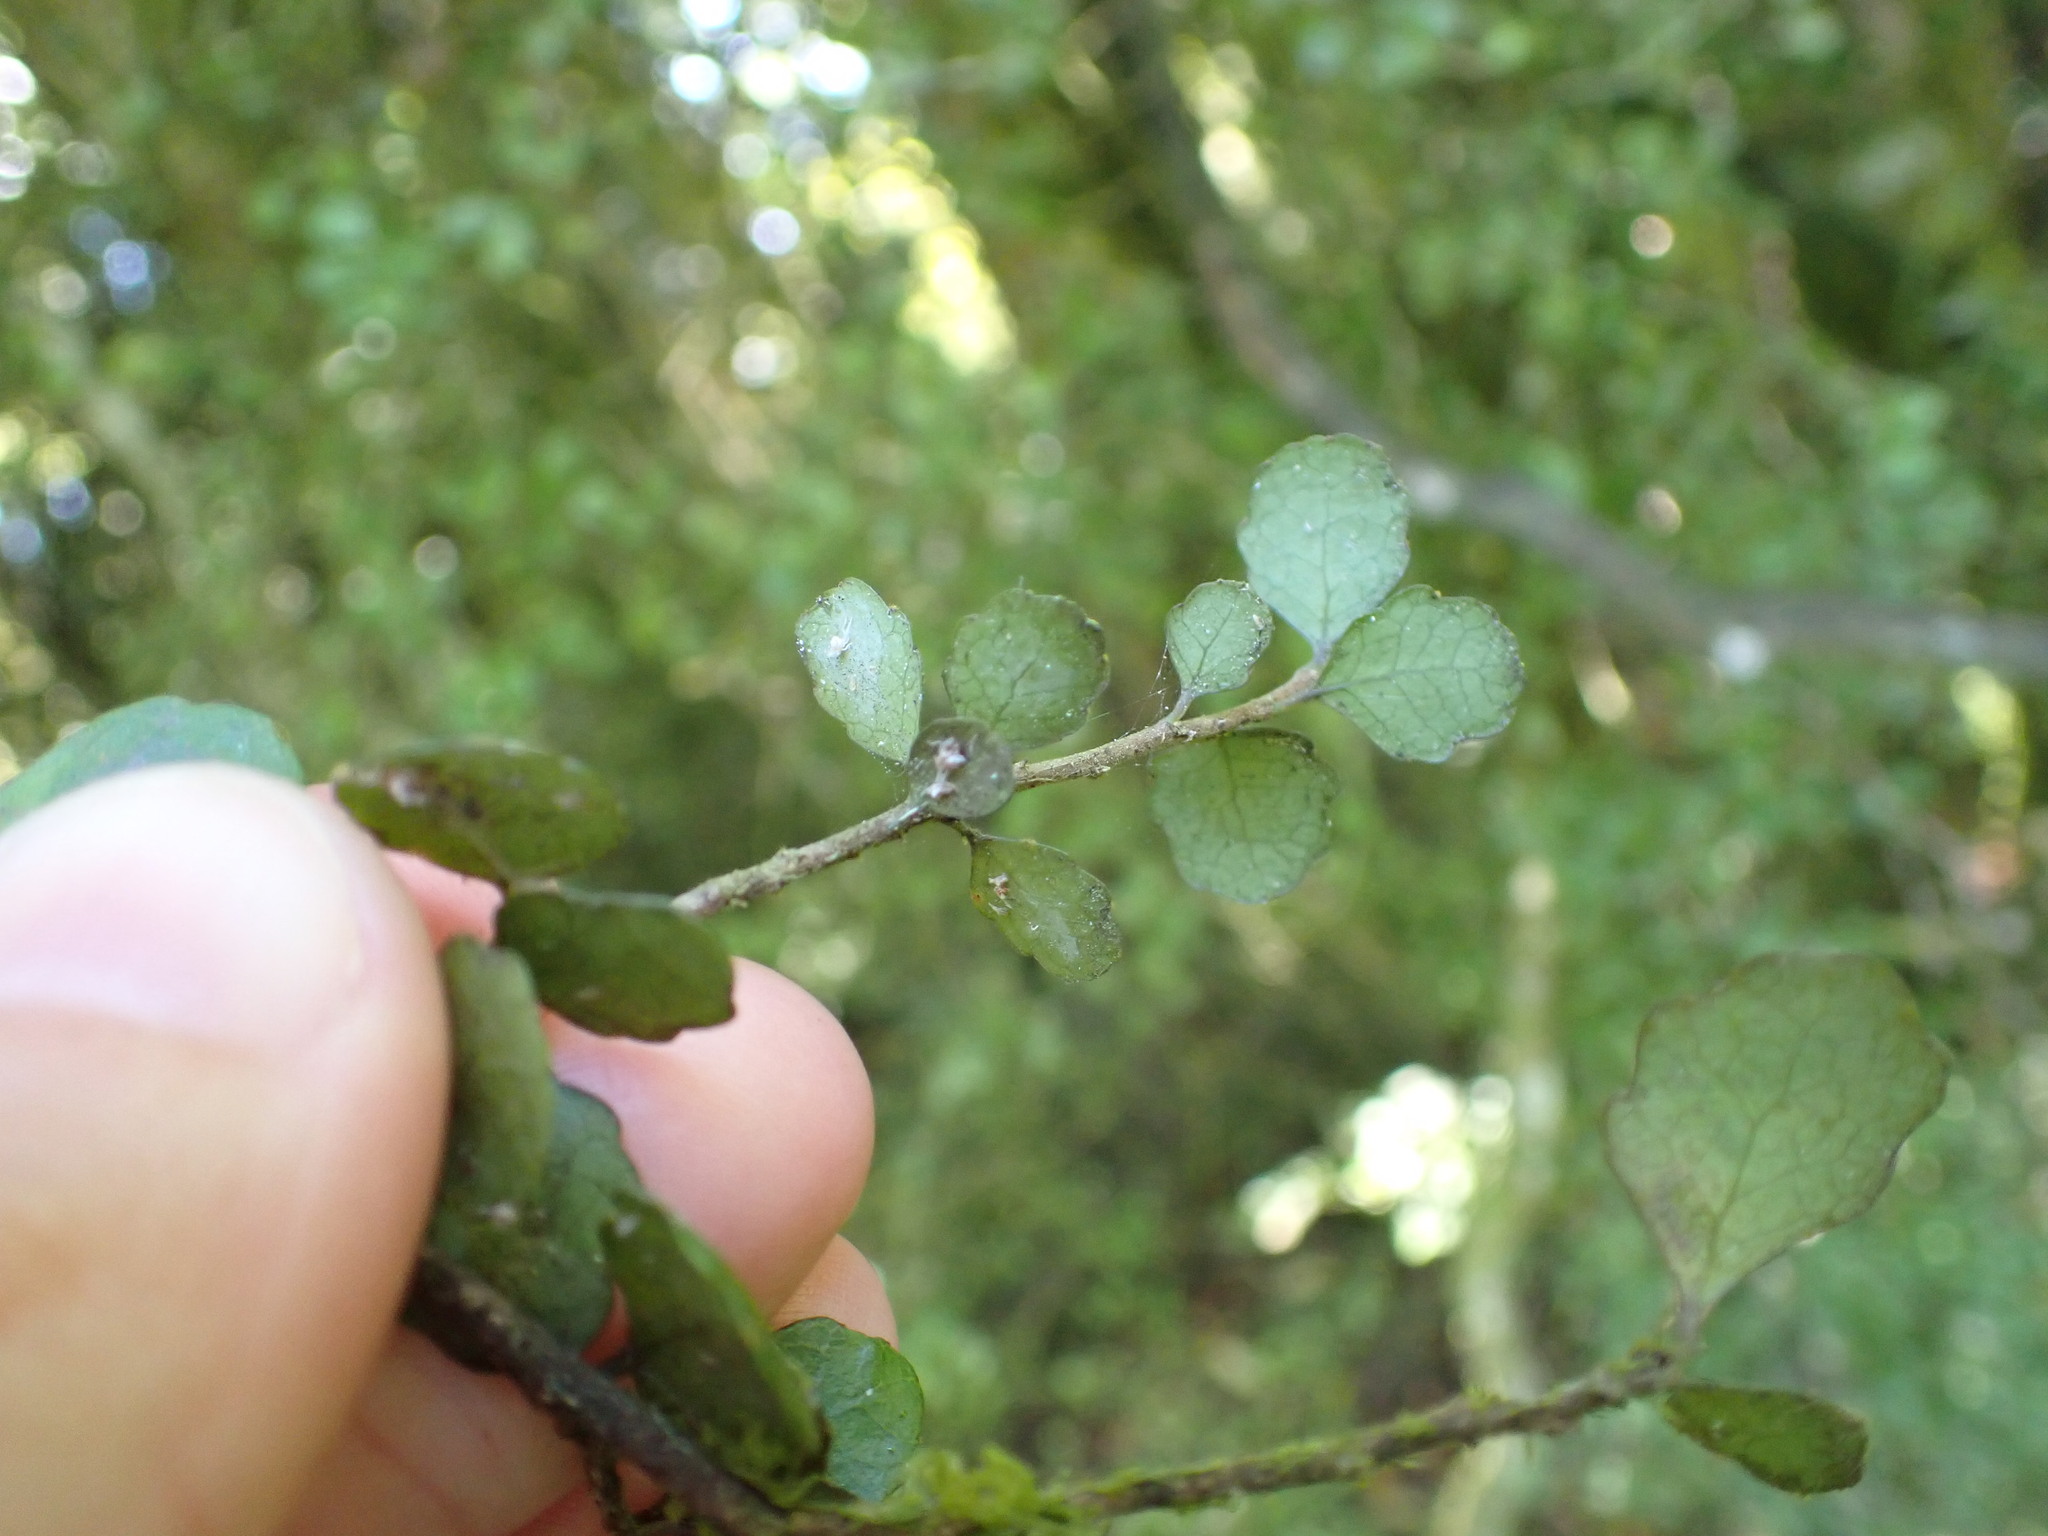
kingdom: Plantae
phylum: Tracheophyta
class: Magnoliopsida
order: Malpighiales
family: Violaceae
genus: Melicytus
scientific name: Melicytus micranthus
